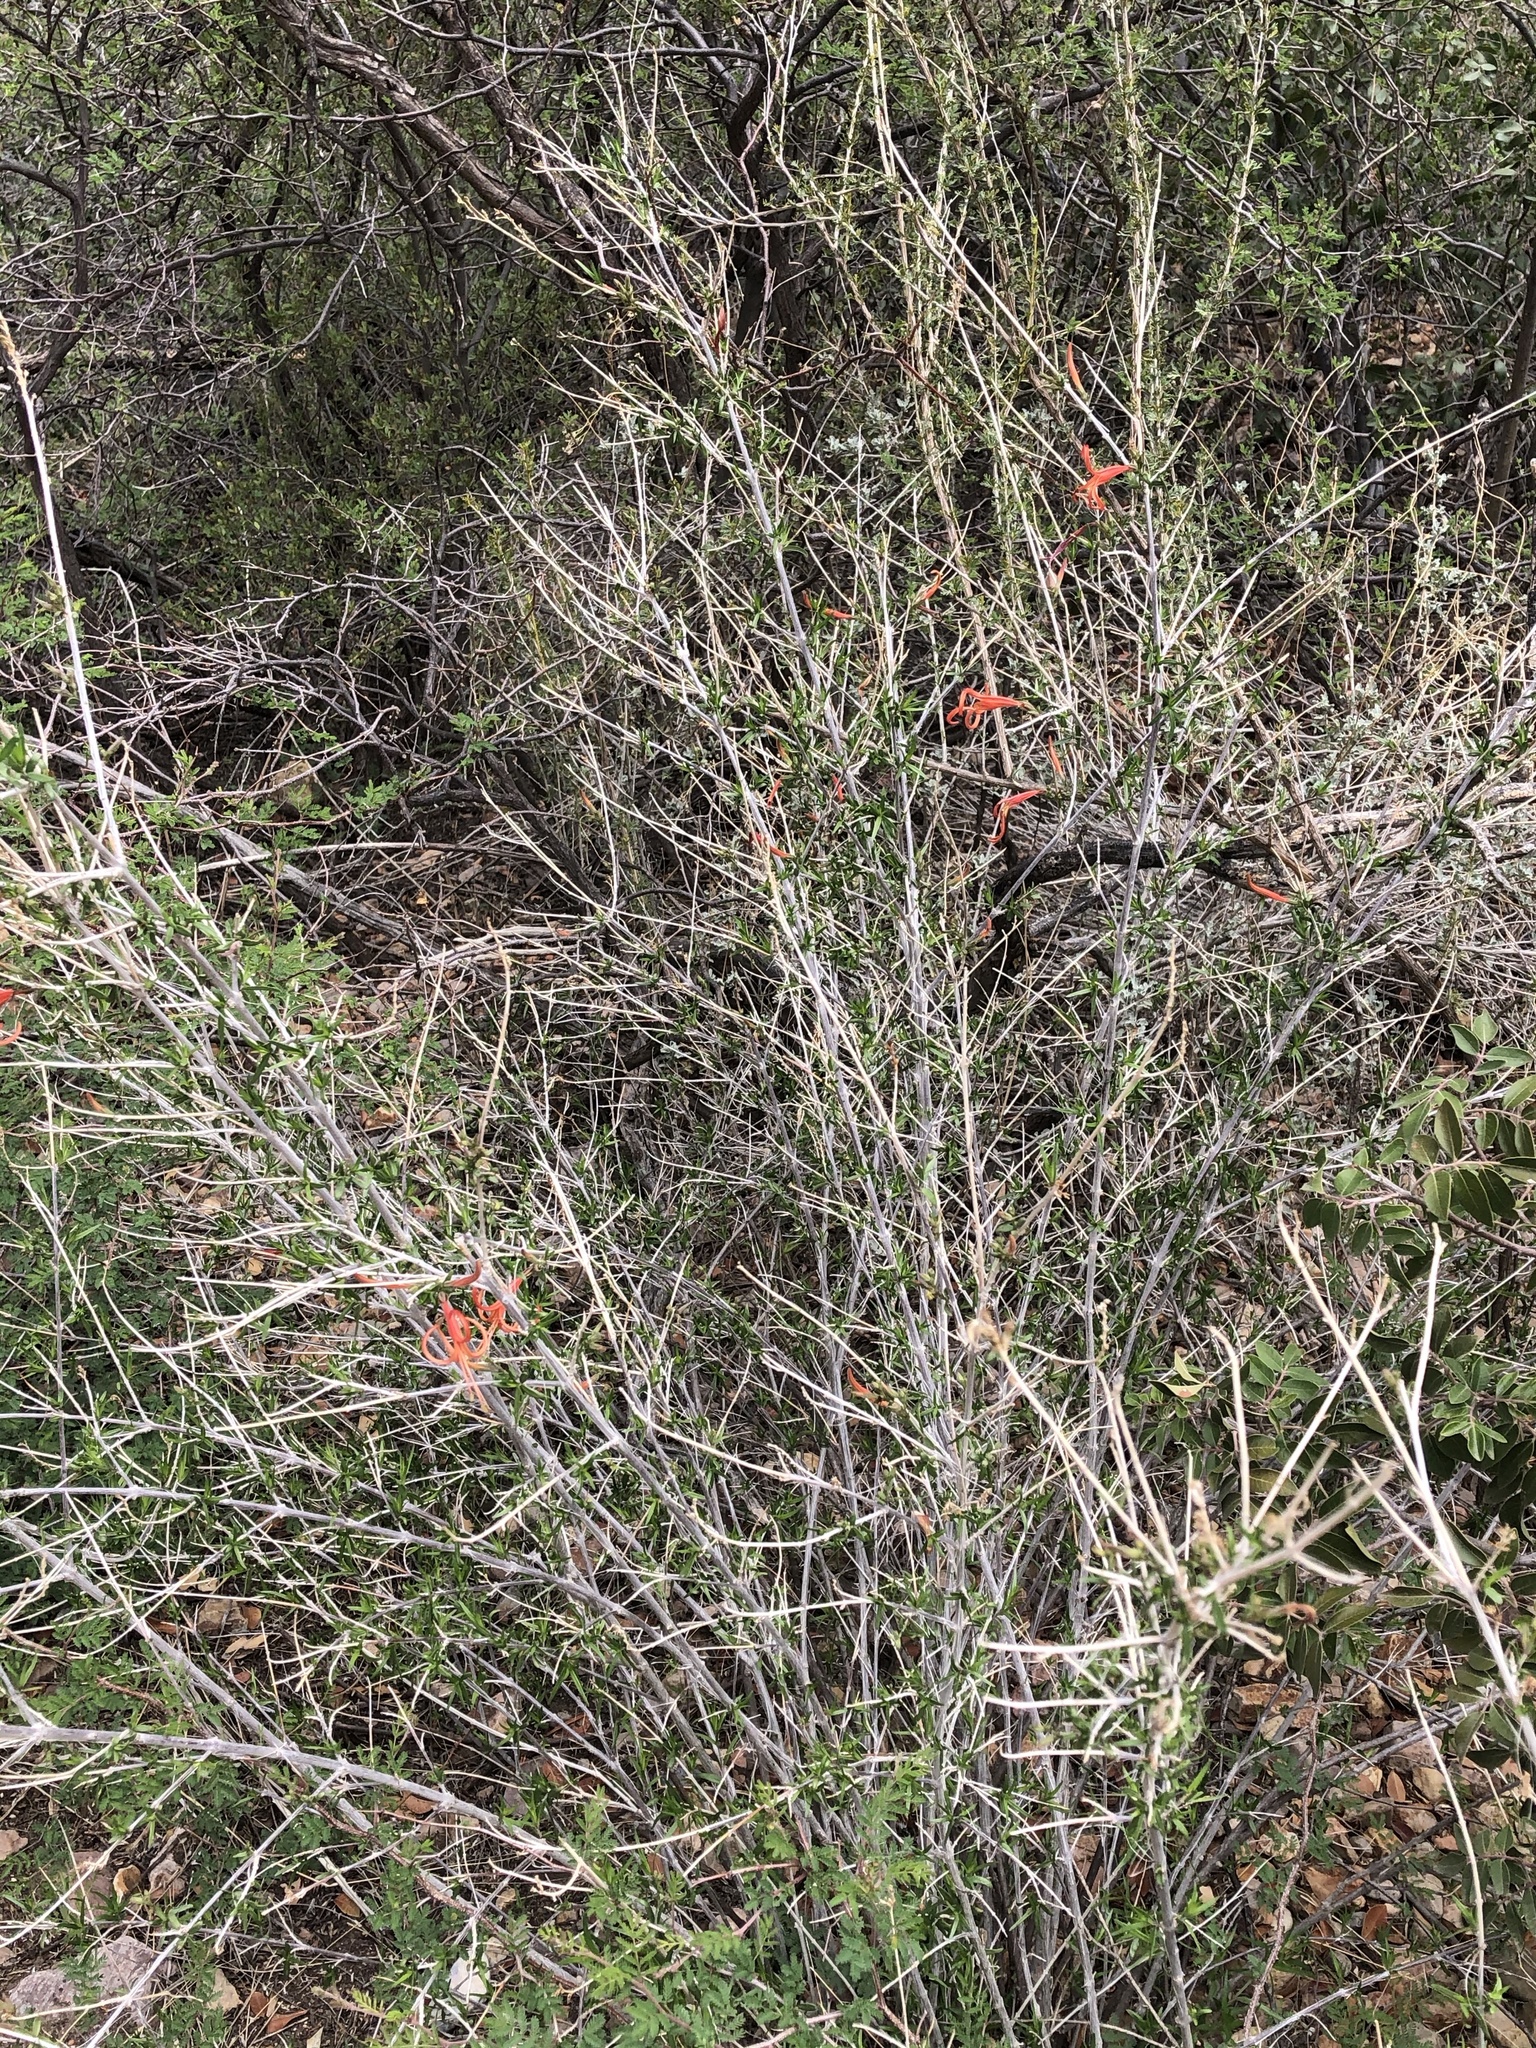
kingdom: Plantae
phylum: Tracheophyta
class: Magnoliopsida
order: Lamiales
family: Acanthaceae
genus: Anisacanthus
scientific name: Anisacanthus linearis
